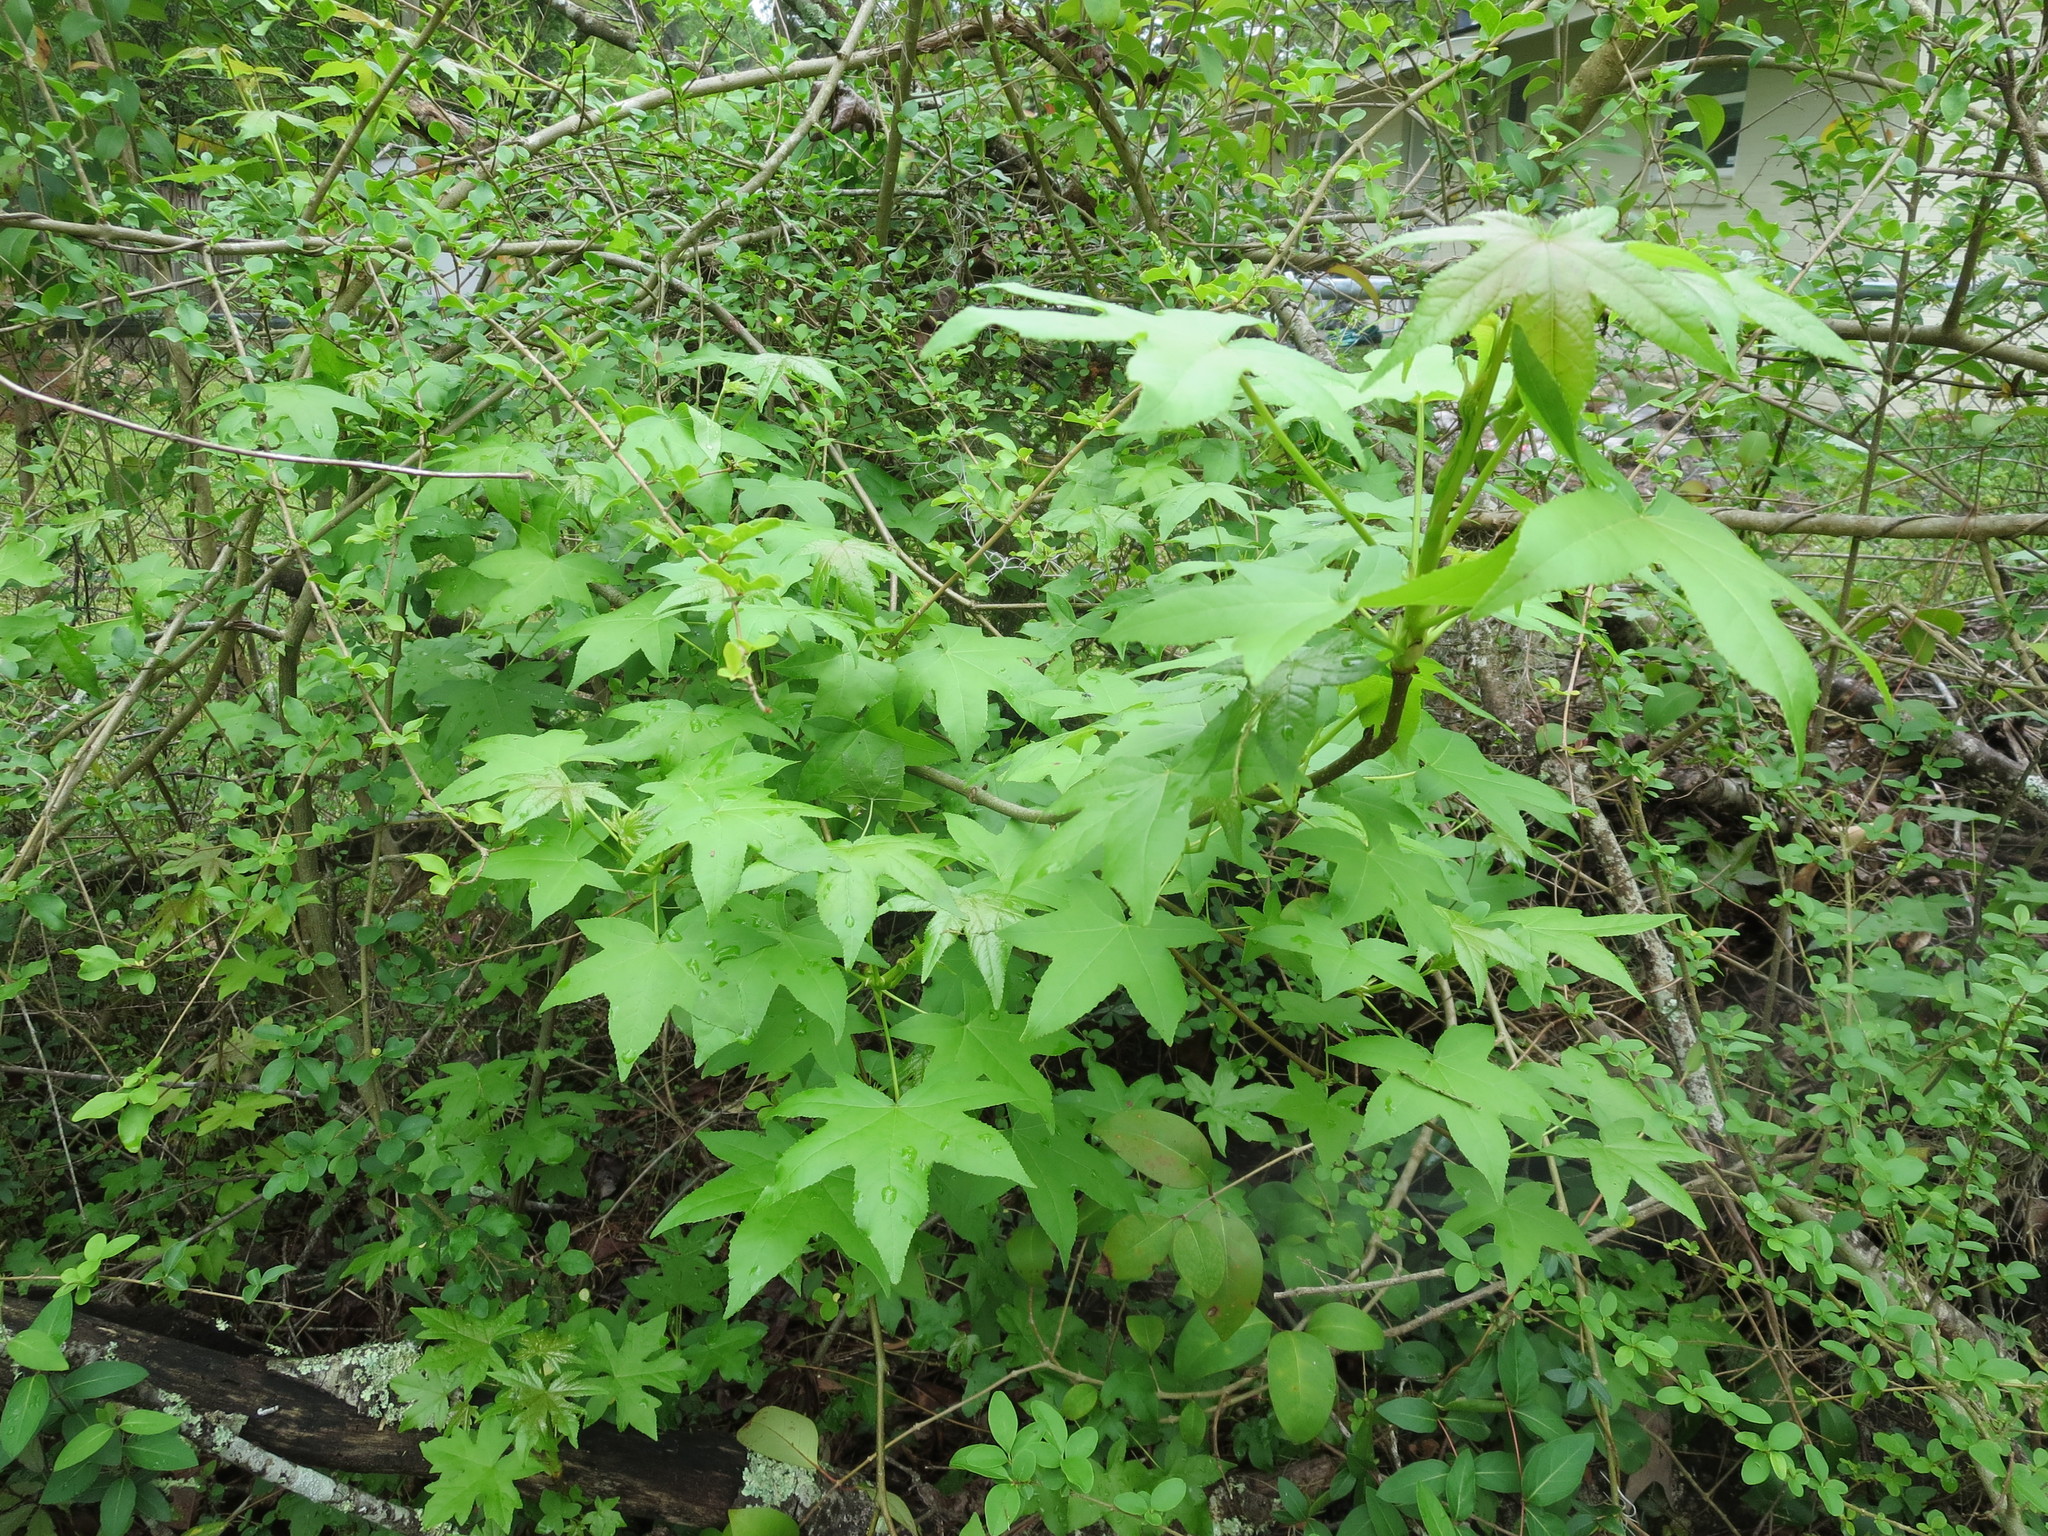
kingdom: Plantae
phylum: Tracheophyta
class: Magnoliopsida
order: Saxifragales
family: Altingiaceae
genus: Liquidambar
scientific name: Liquidambar styraciflua
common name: Sweet gum
